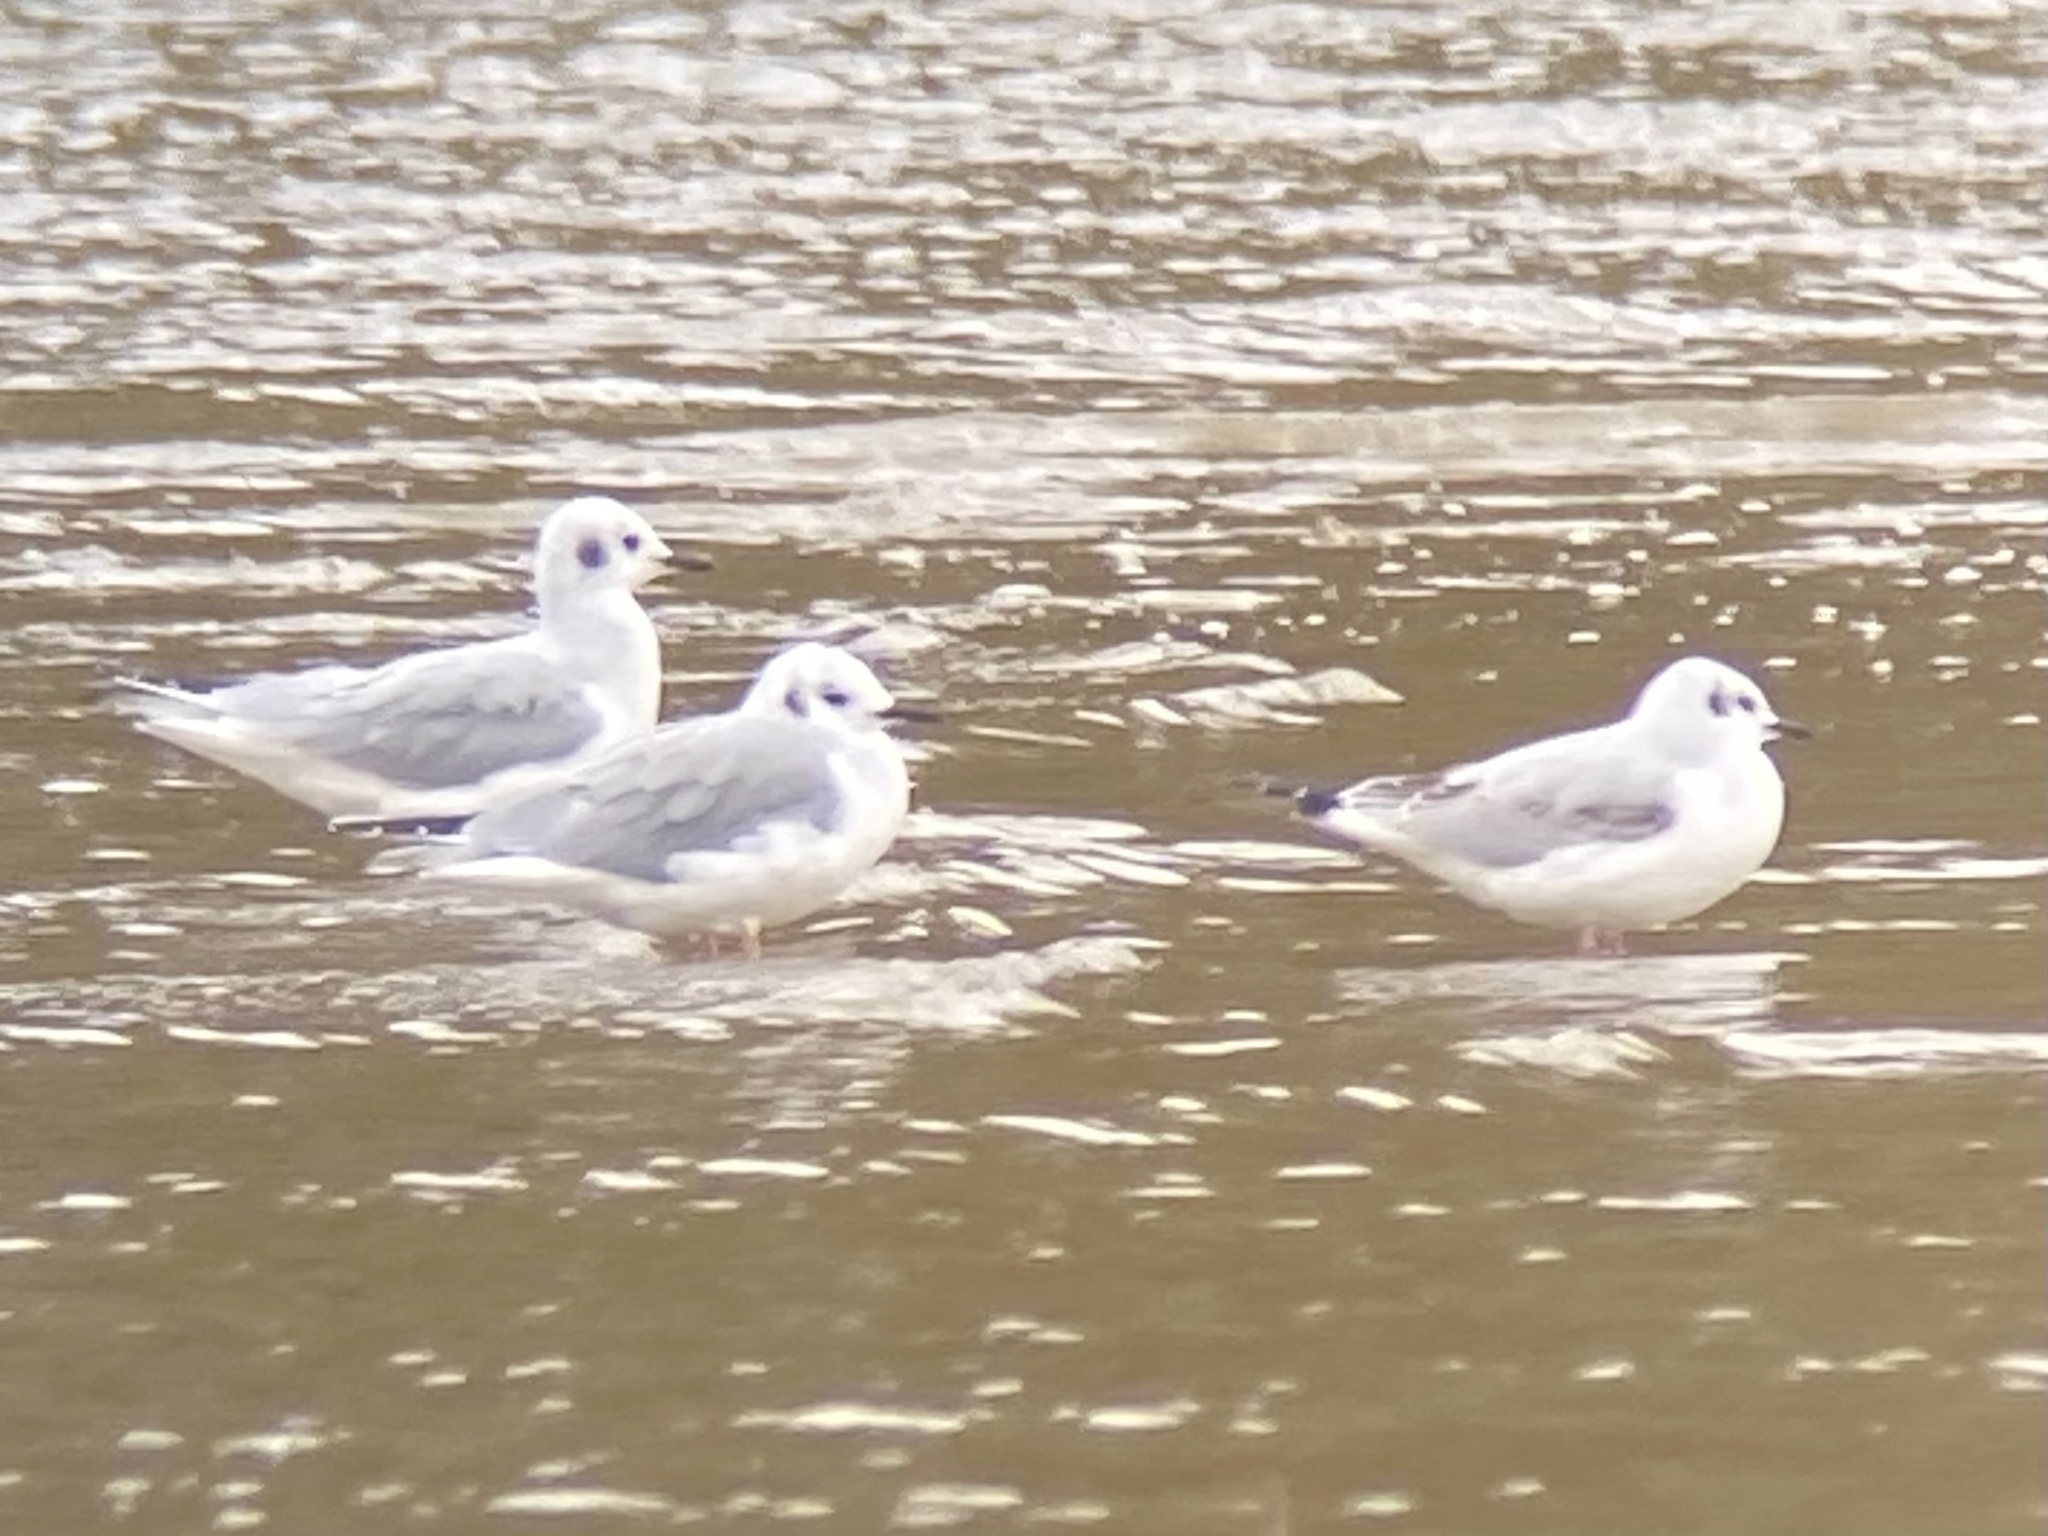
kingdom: Animalia
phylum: Chordata
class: Aves
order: Charadriiformes
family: Laridae
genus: Chroicocephalus
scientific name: Chroicocephalus philadelphia
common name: Bonaparte's gull
